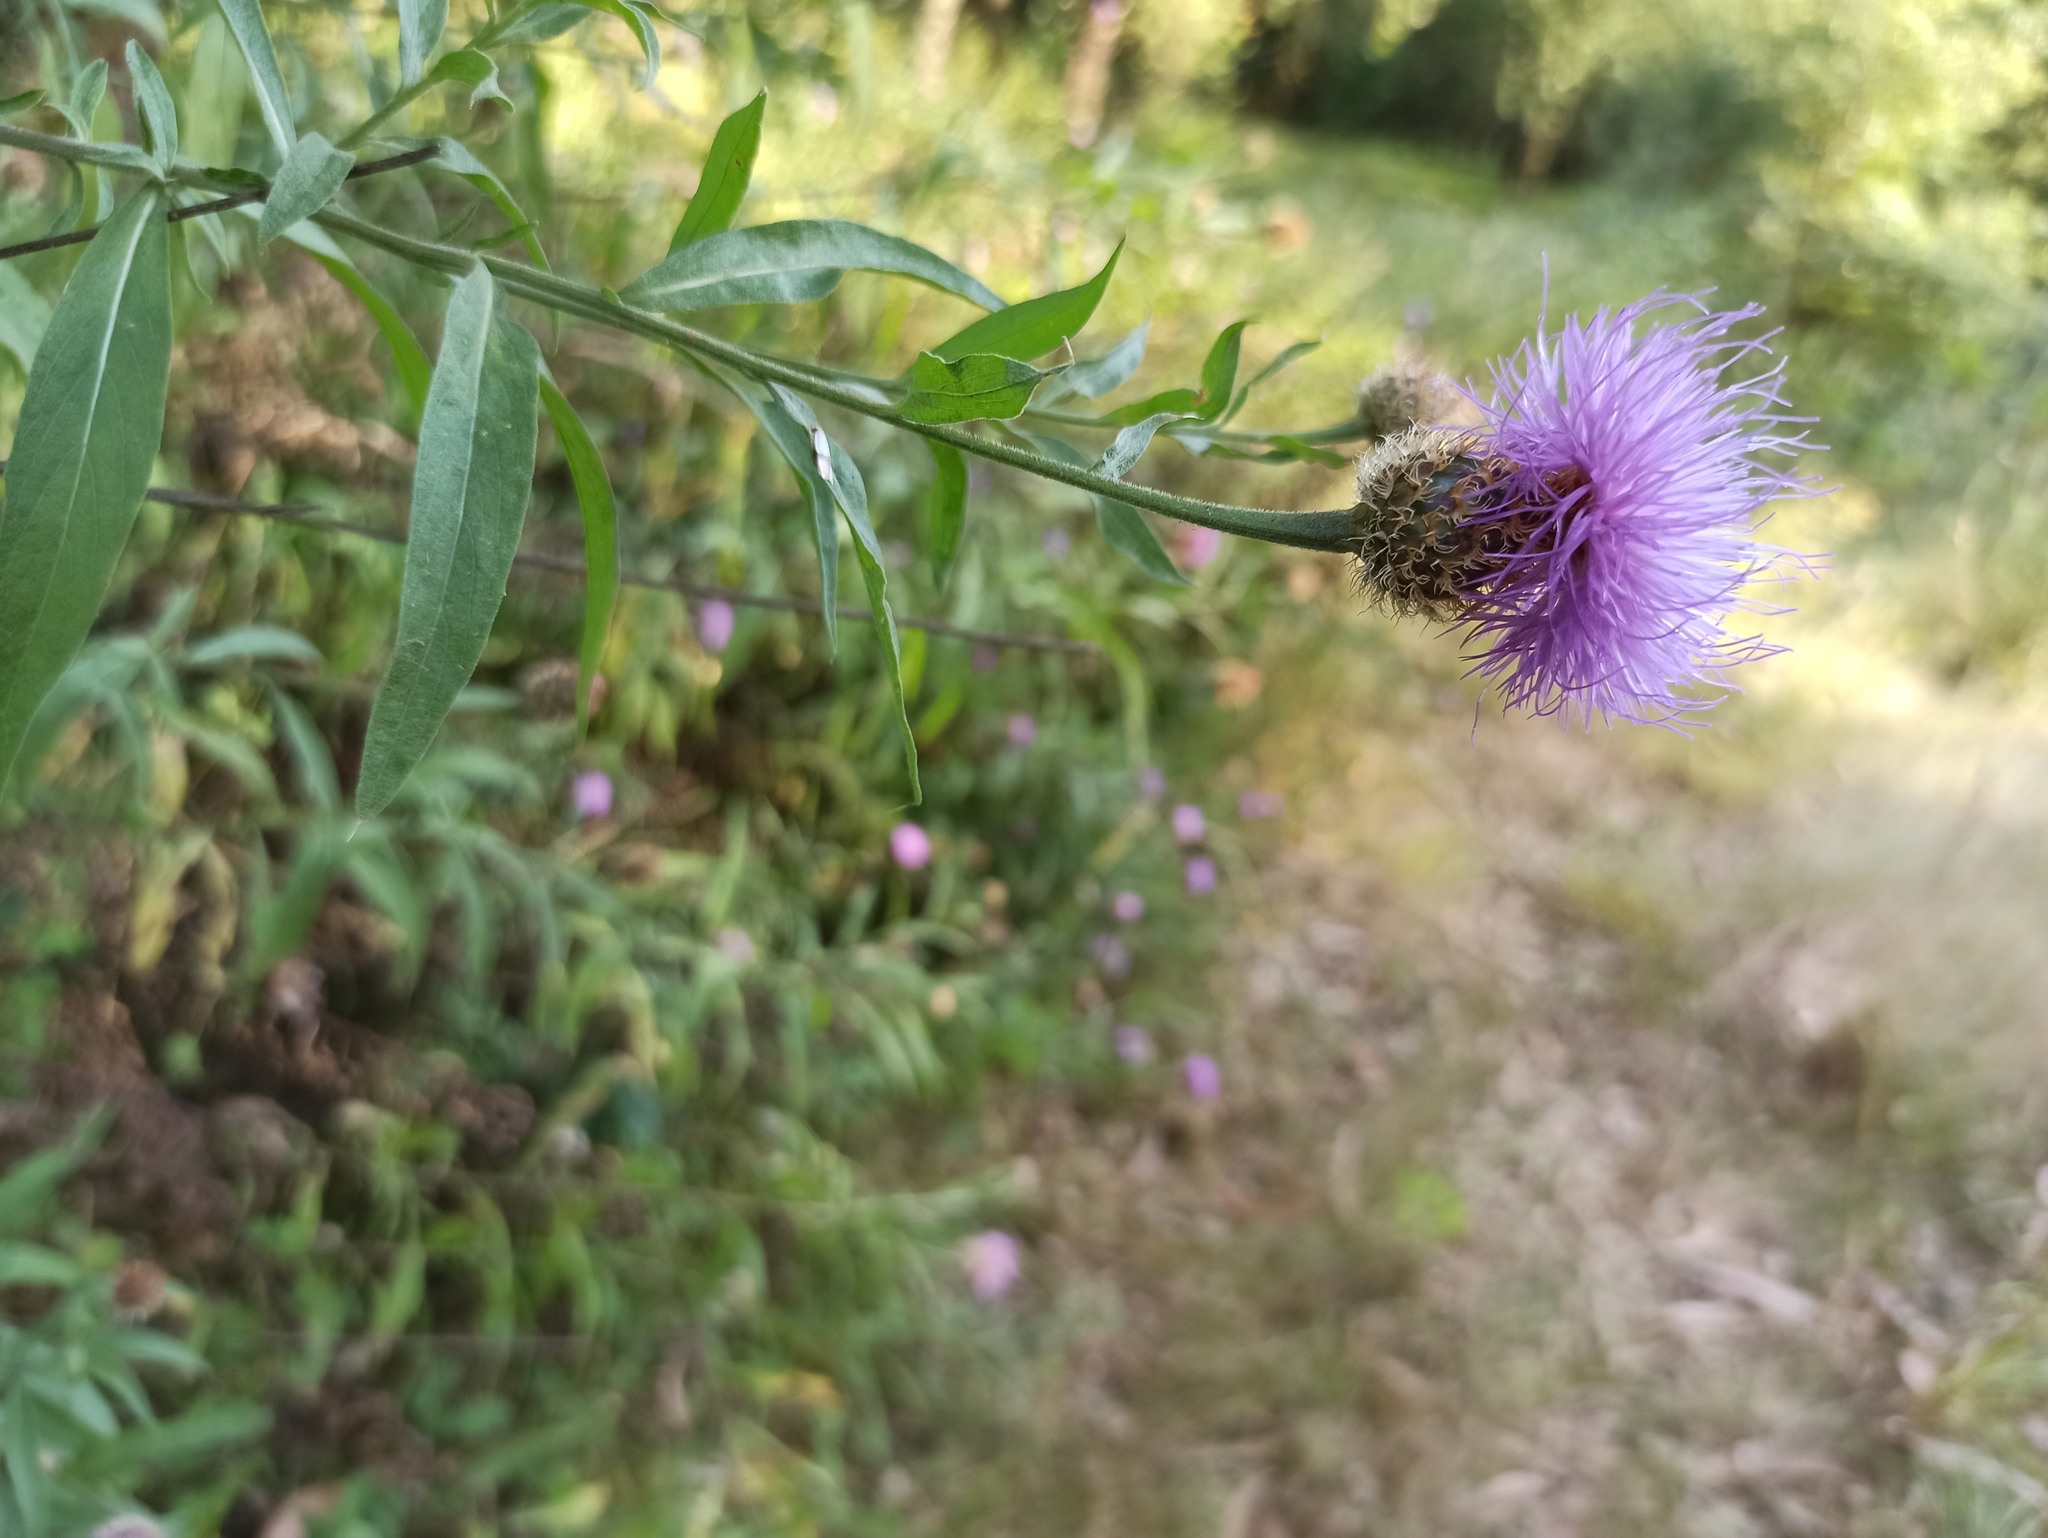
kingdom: Plantae
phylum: Tracheophyta
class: Magnoliopsida
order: Asterales
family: Asteraceae
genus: Cheirolophus
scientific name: Cheirolophus sempervirens
